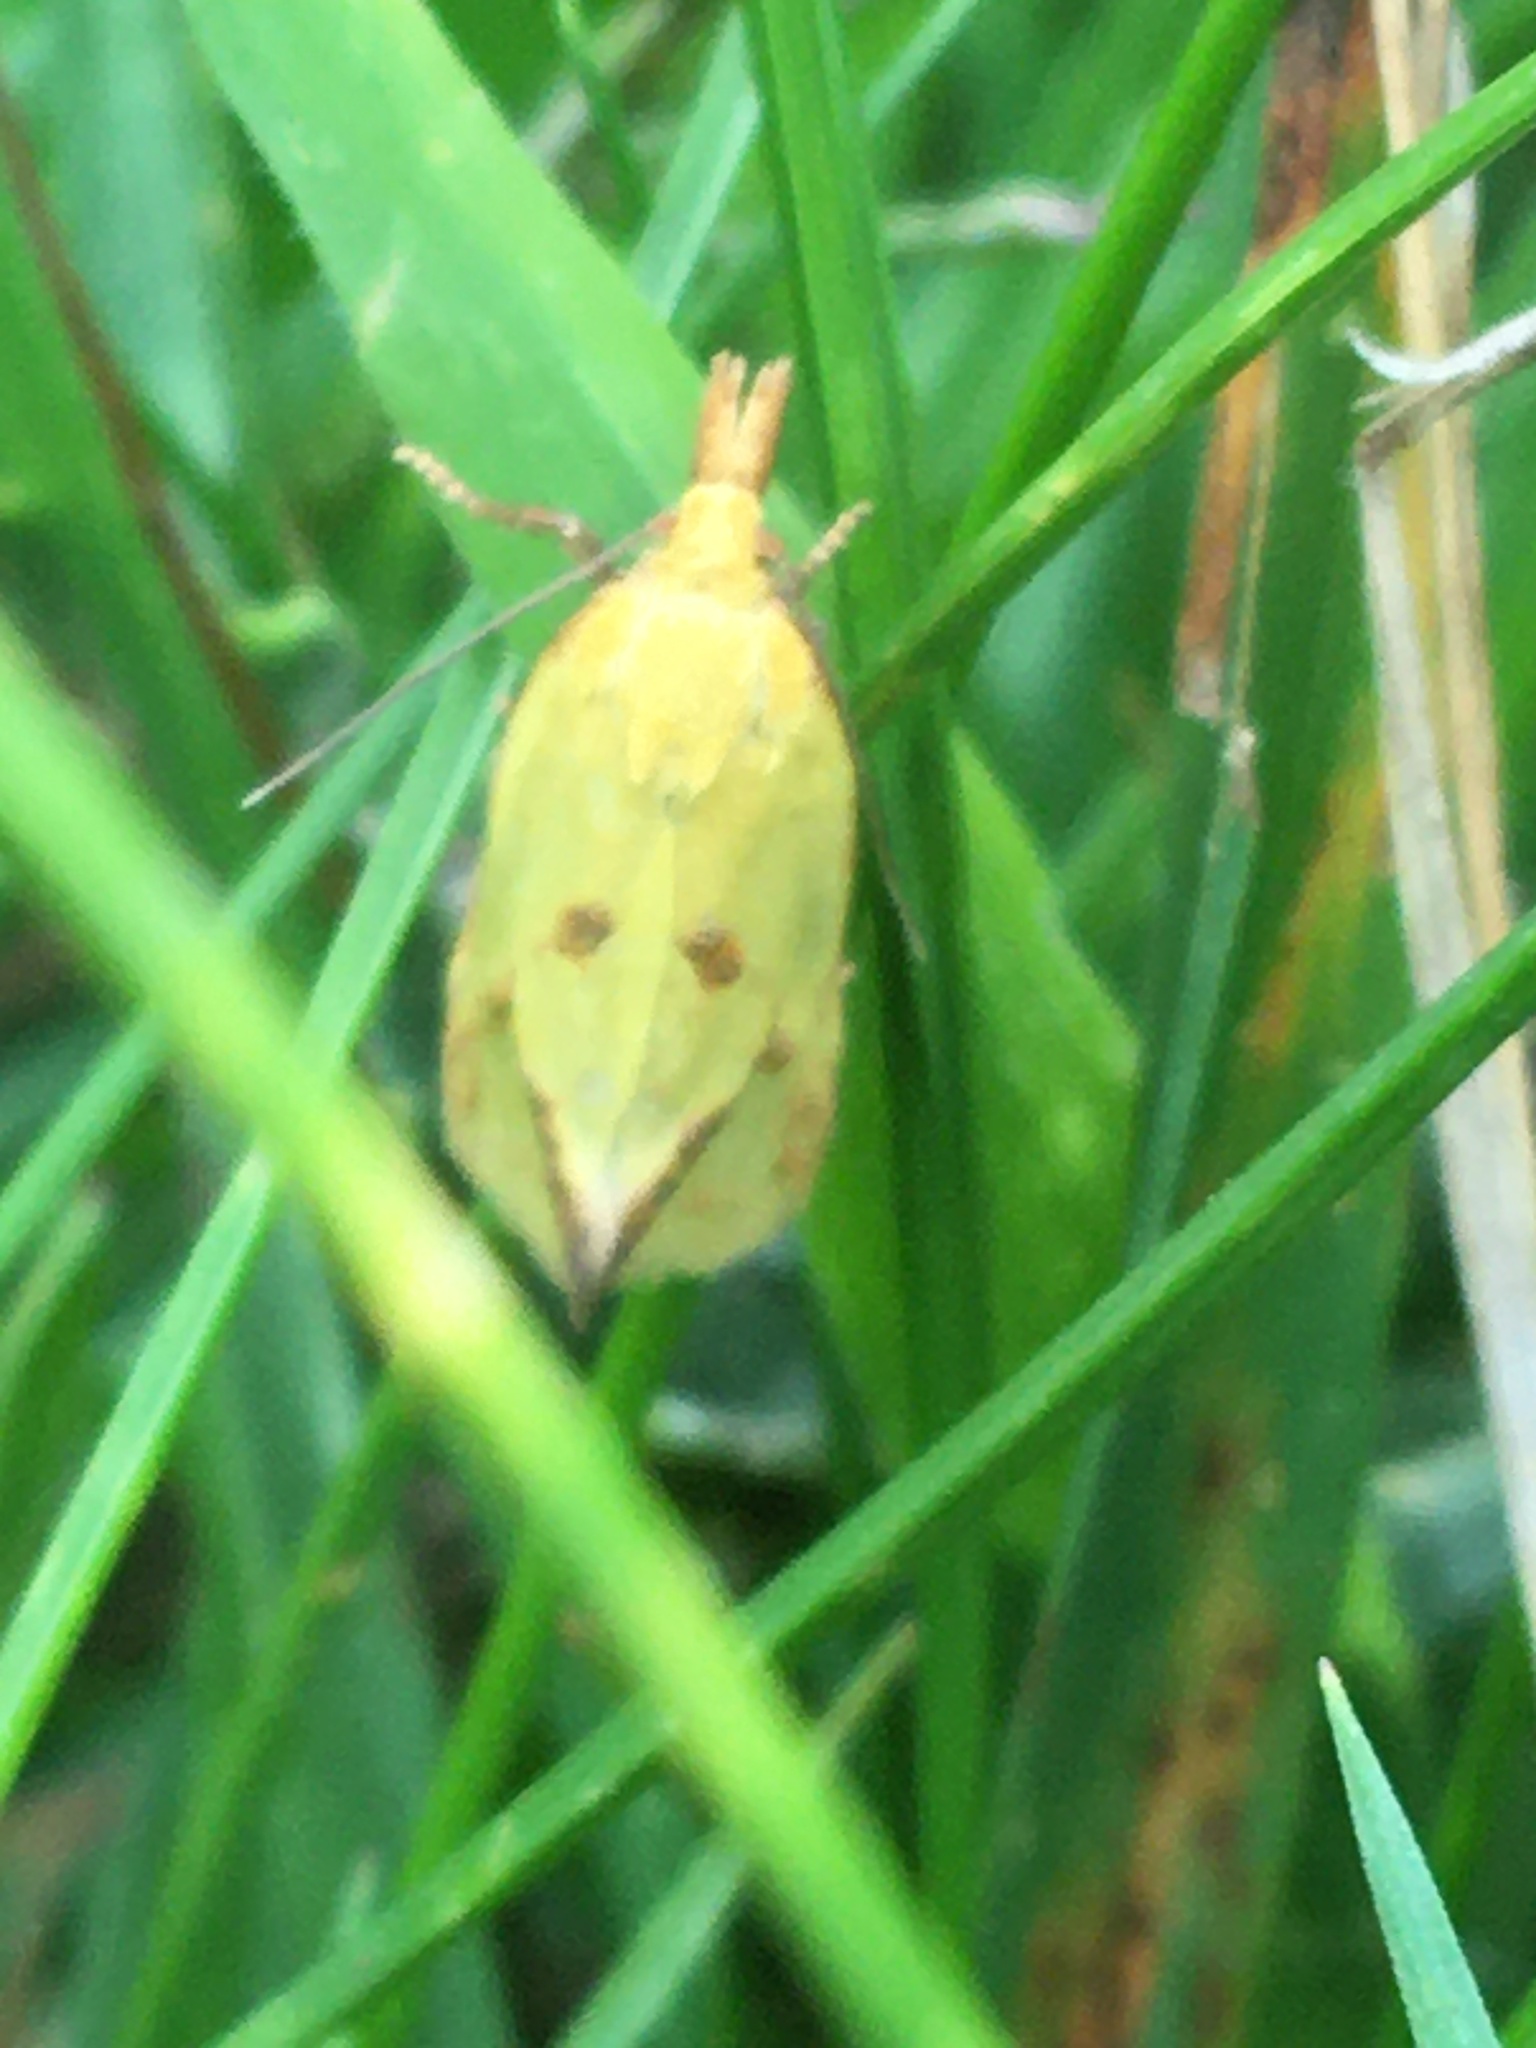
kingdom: Animalia
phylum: Arthropoda
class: Insecta
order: Lepidoptera
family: Tortricidae
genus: Agapeta
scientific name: Agapeta hamana
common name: Common yellow conch
